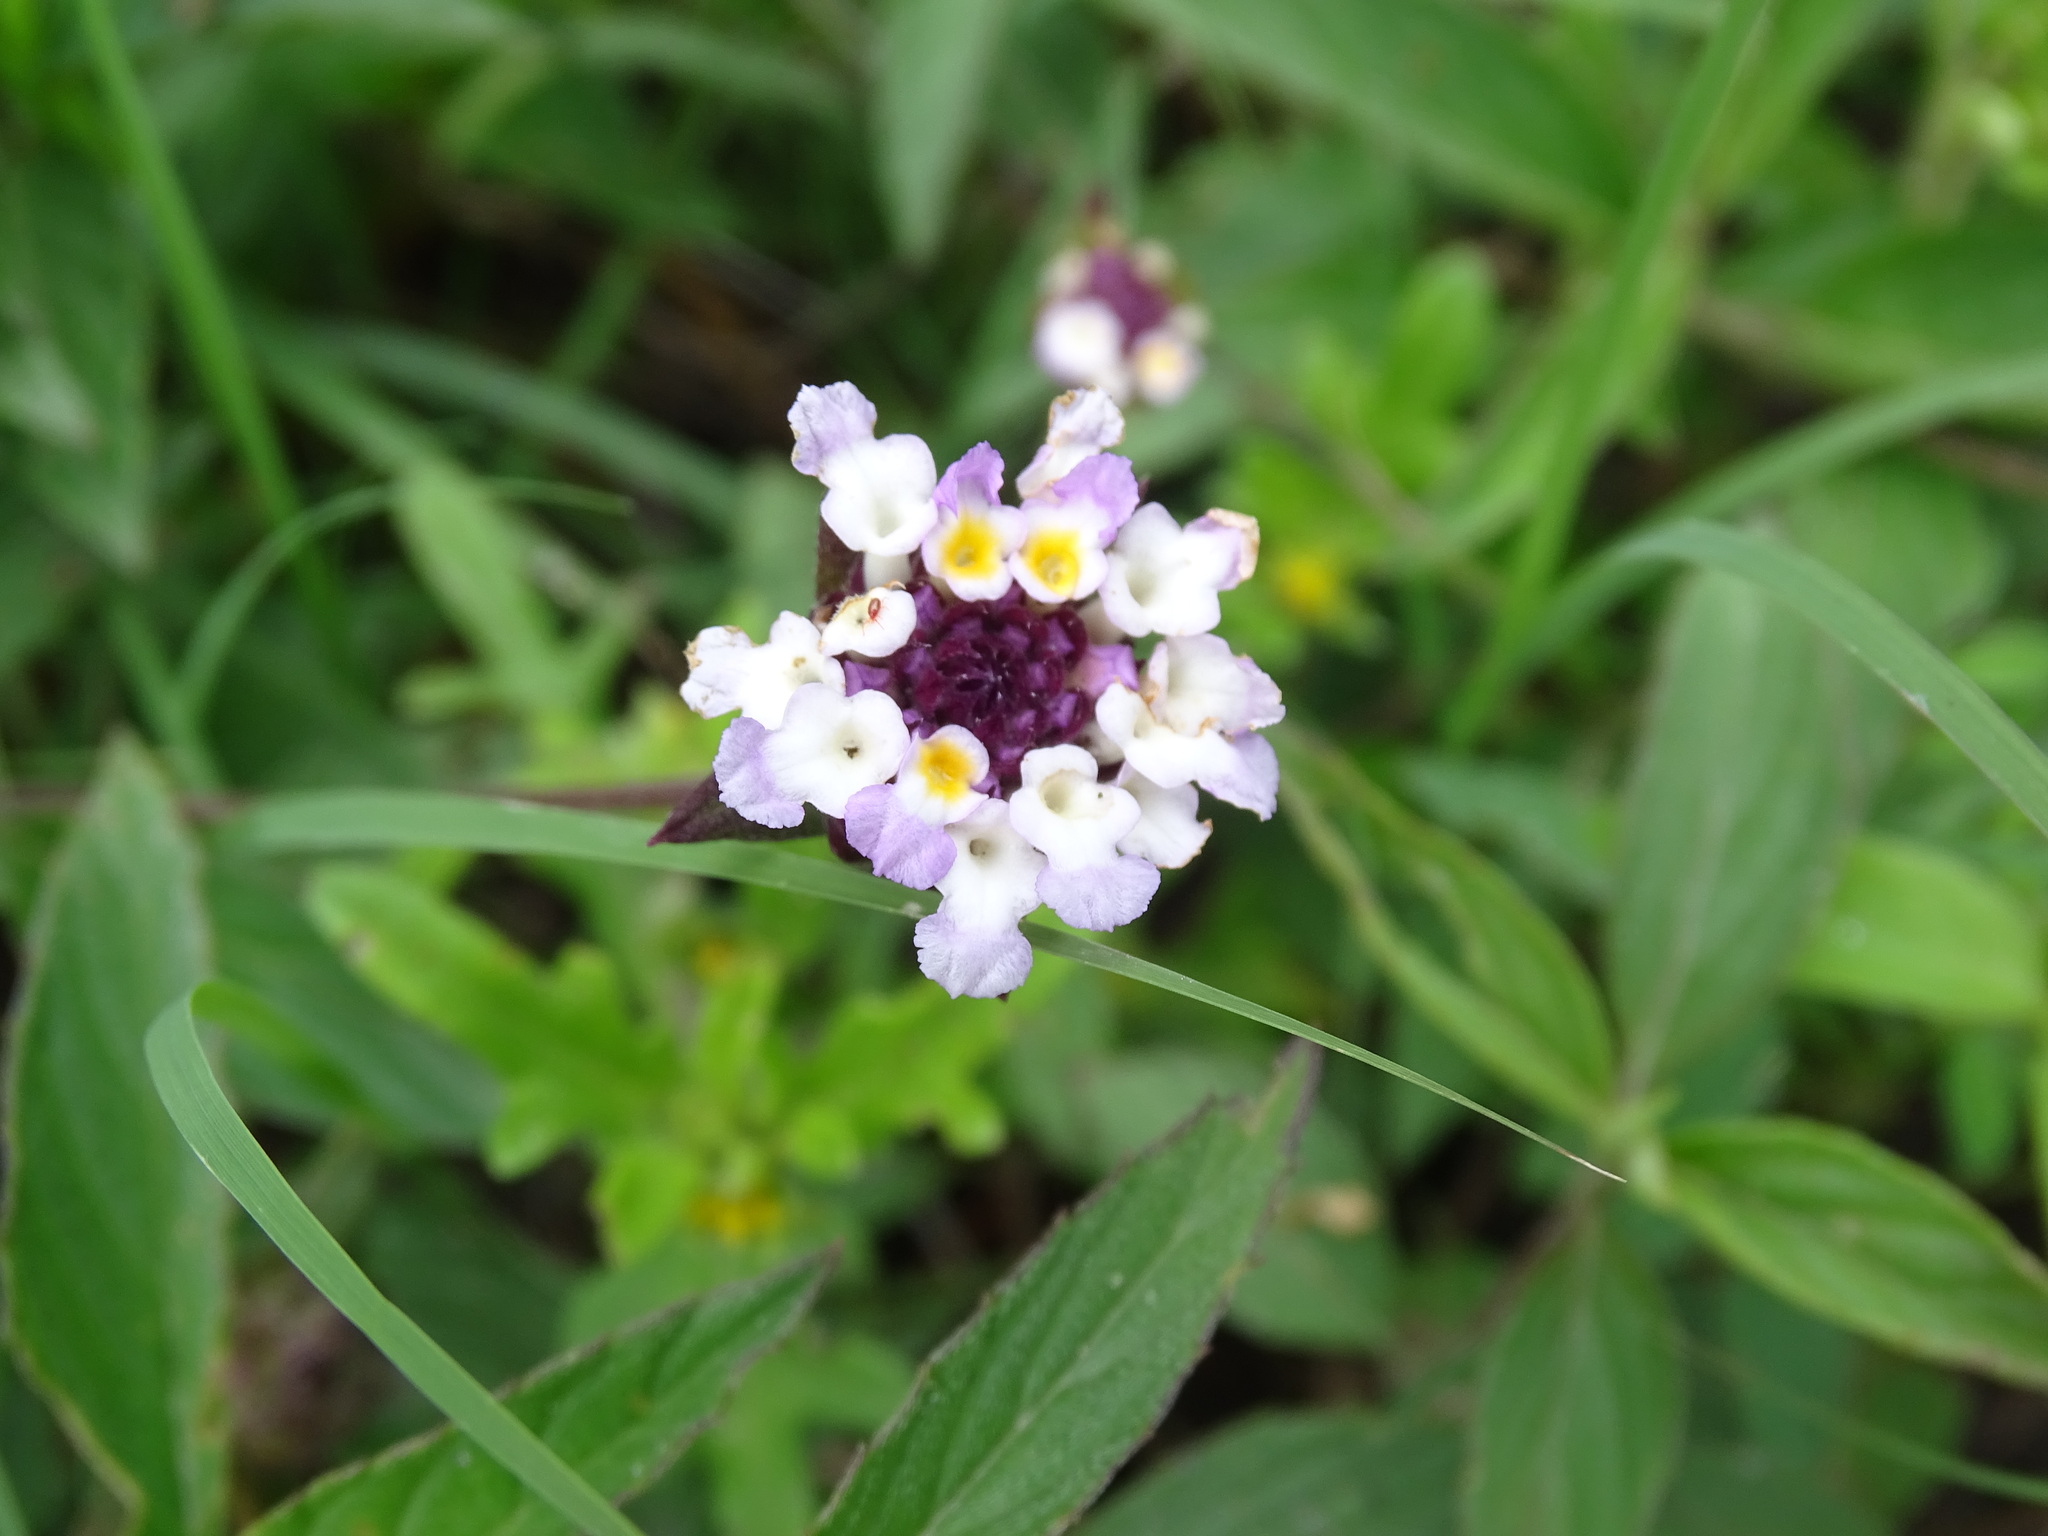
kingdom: Plantae
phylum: Tracheophyta
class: Magnoliopsida
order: Lamiales
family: Verbenaceae
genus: Lantana
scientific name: Lantana achyranthifolia
